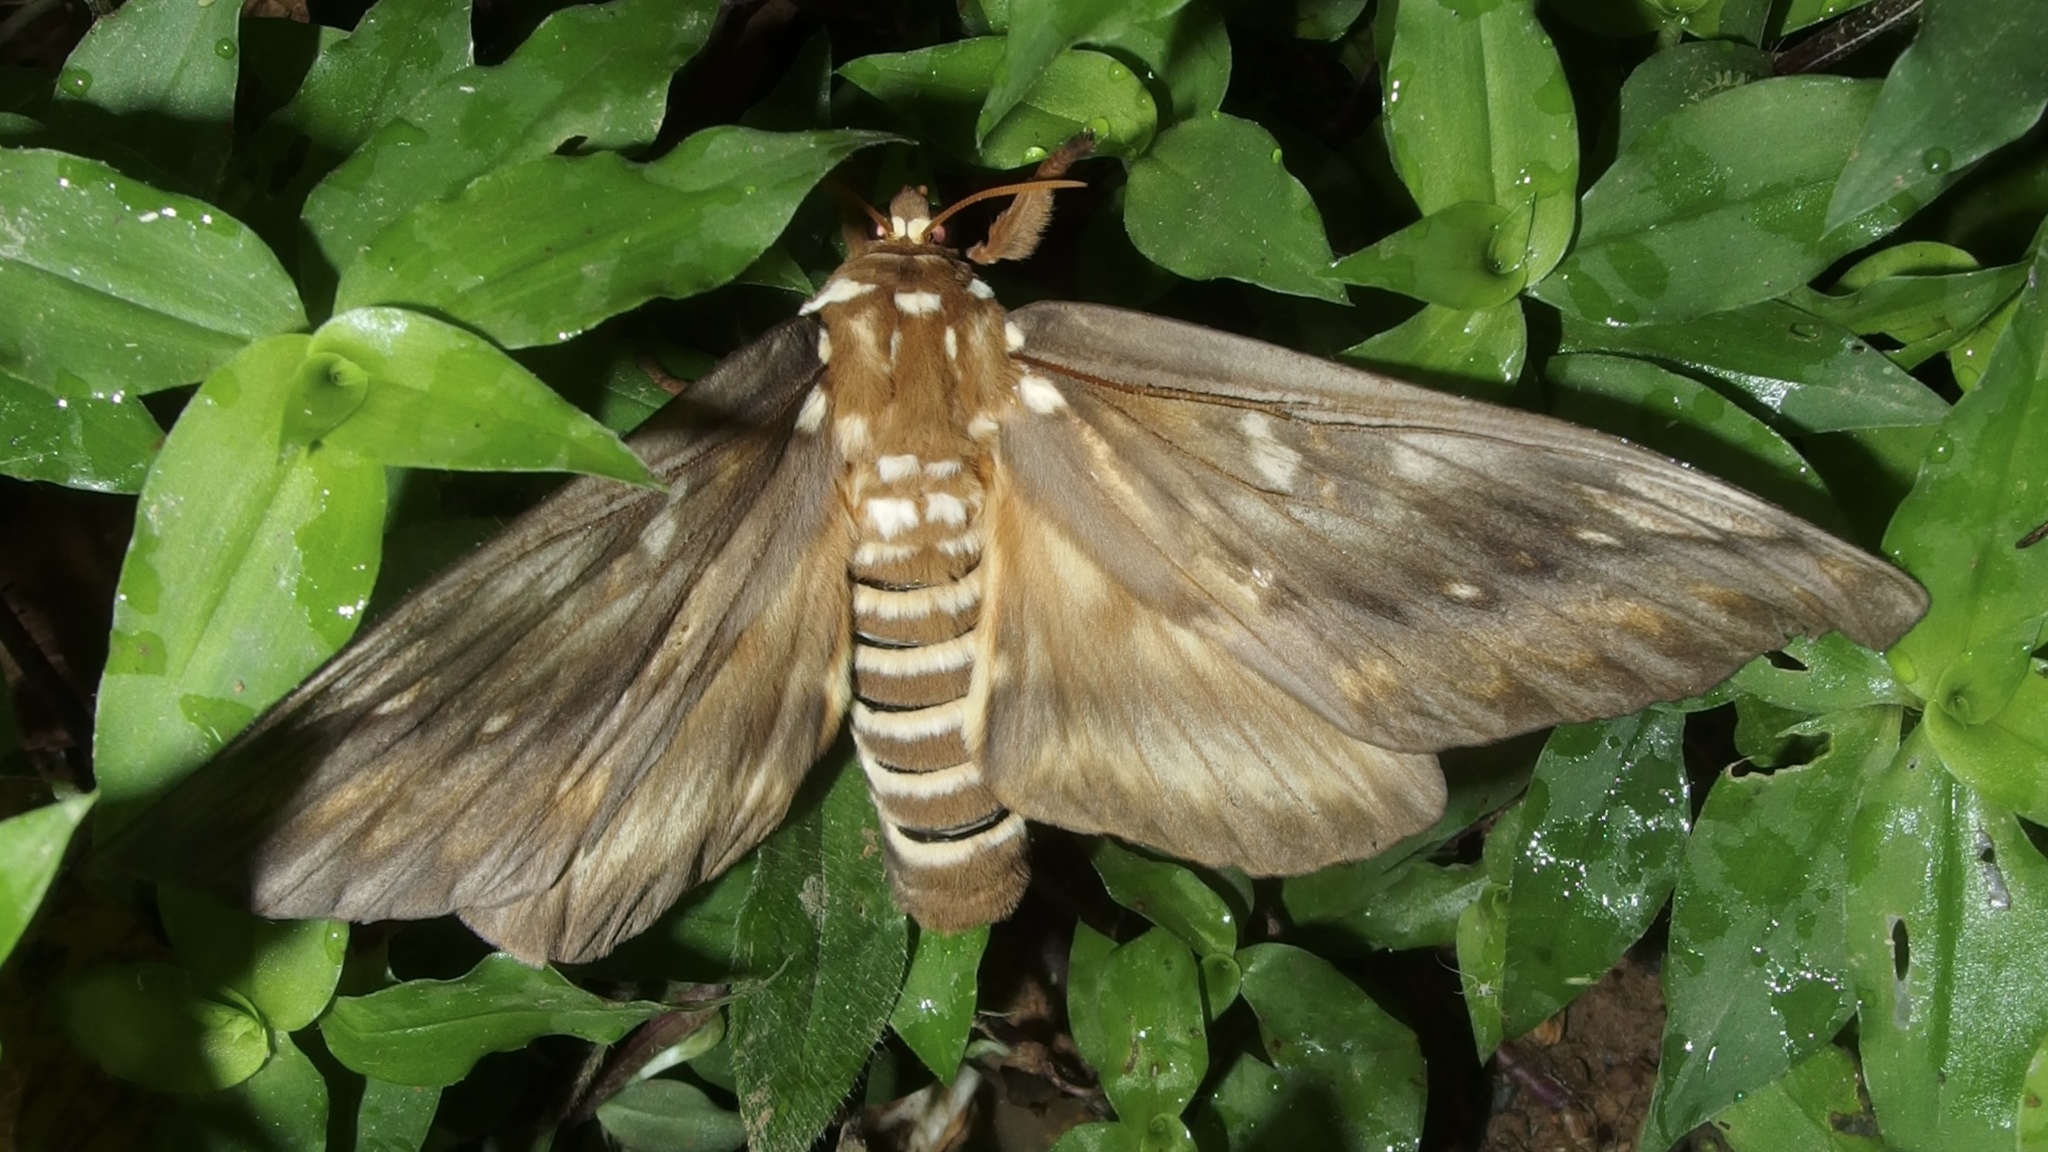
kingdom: Animalia
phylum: Arthropoda
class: Insecta
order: Lepidoptera
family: Saturniidae
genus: Citheronia
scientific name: Citheronia bellavista
